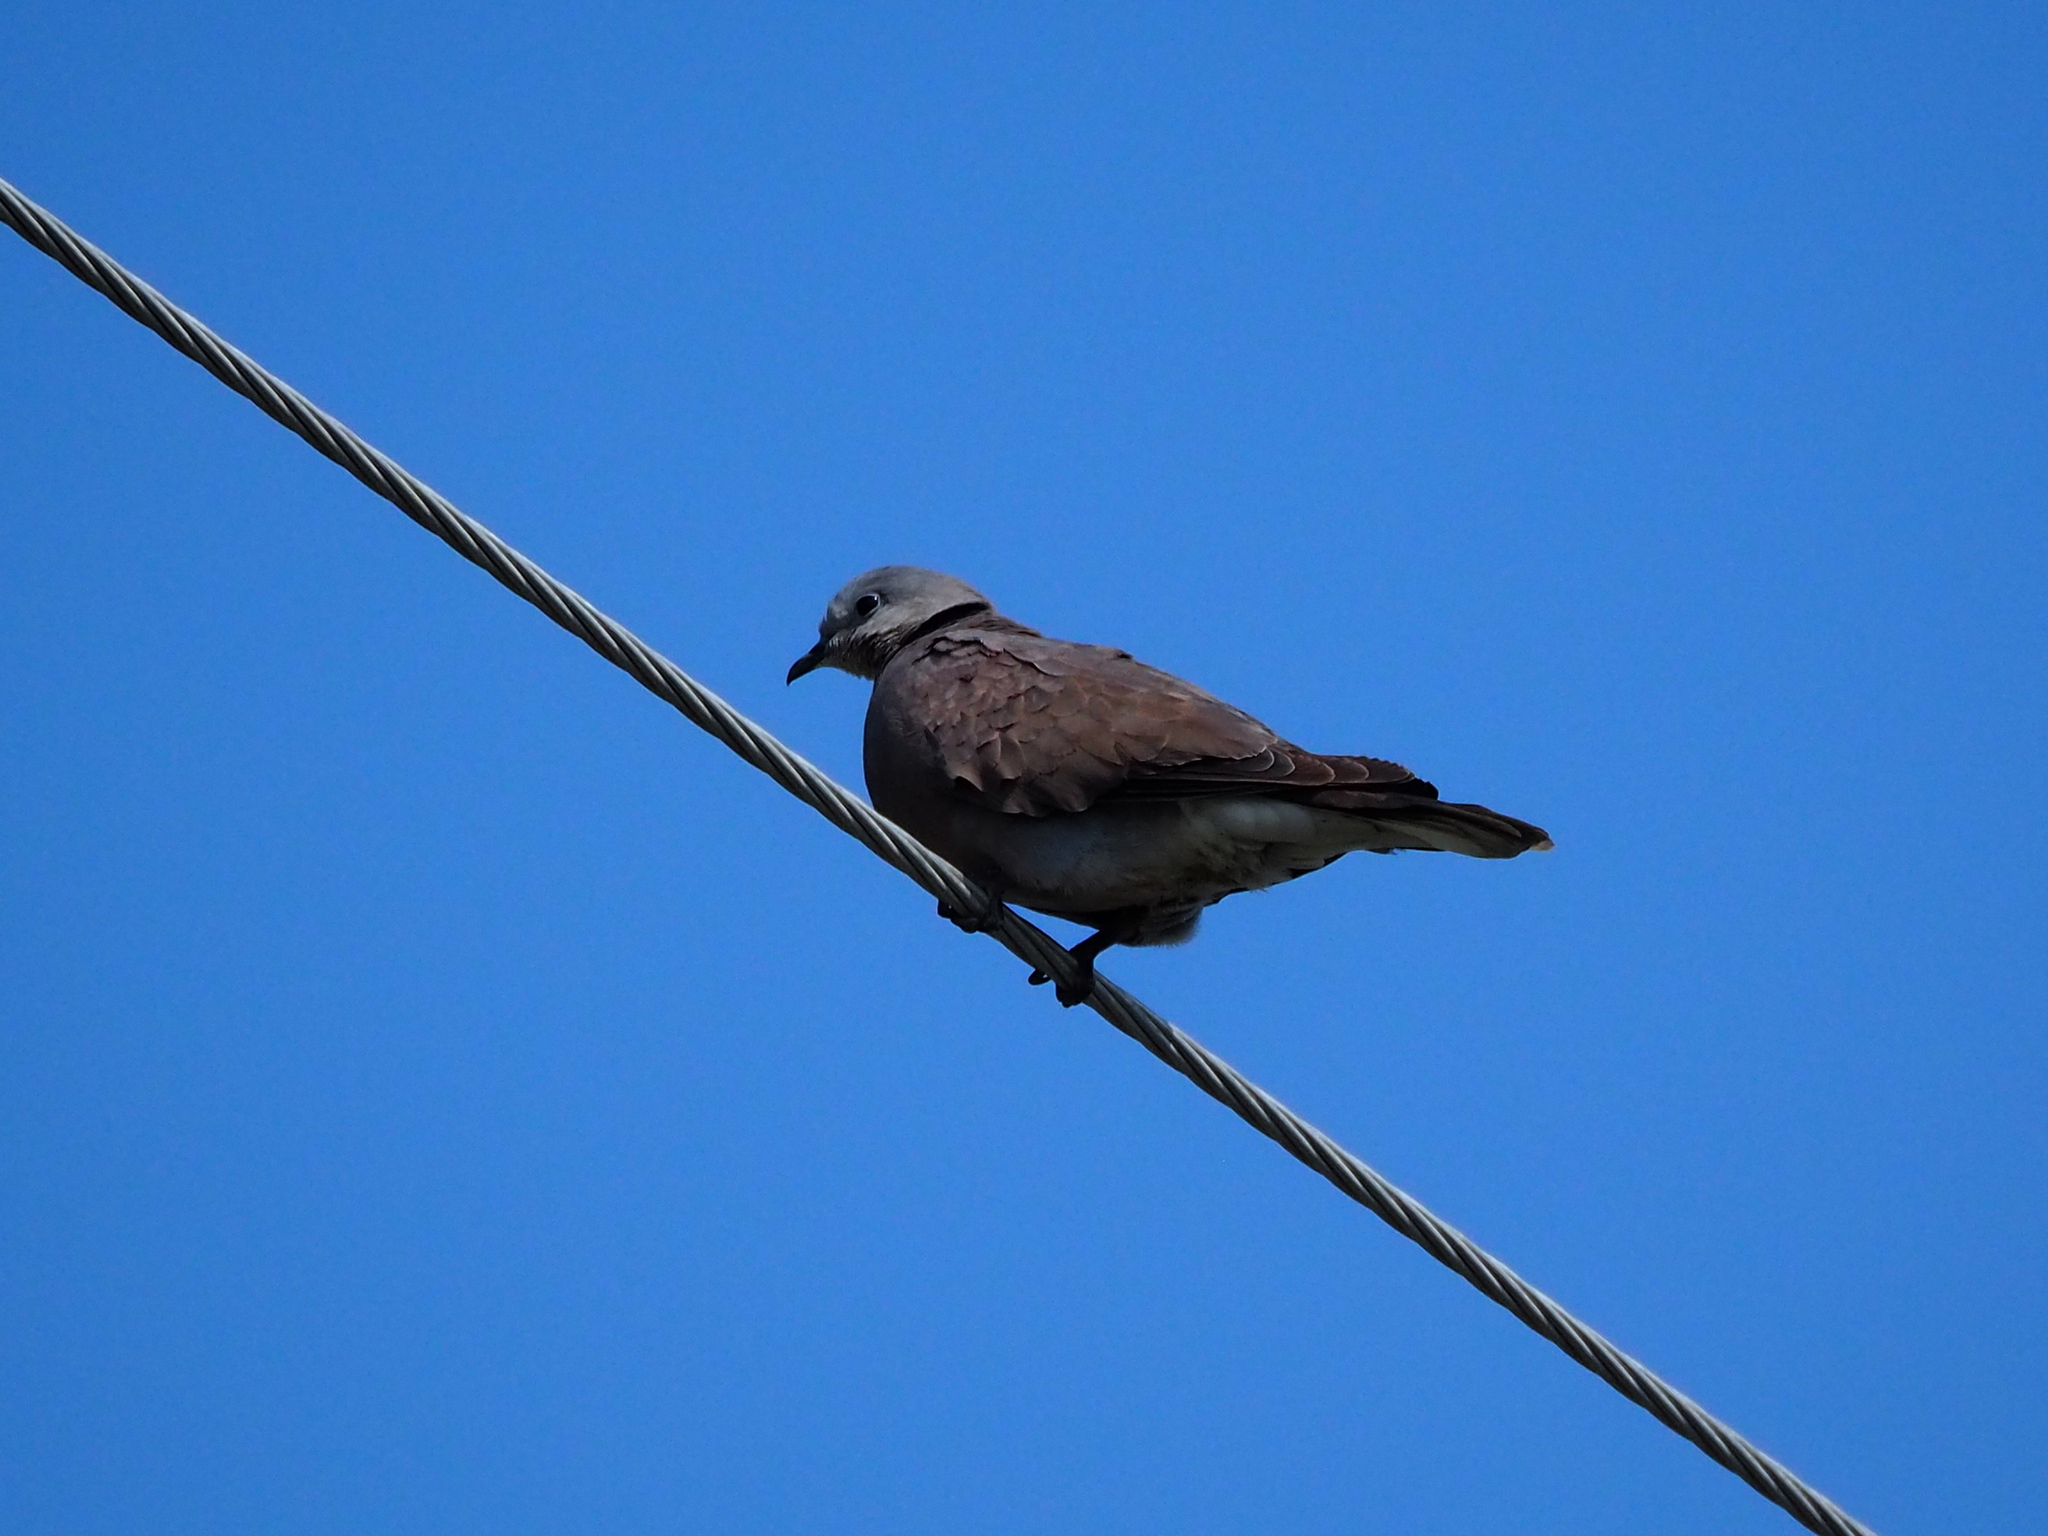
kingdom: Animalia
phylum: Chordata
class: Aves
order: Columbiformes
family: Columbidae
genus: Streptopelia
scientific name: Streptopelia tranquebarica
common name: Red turtle dove
